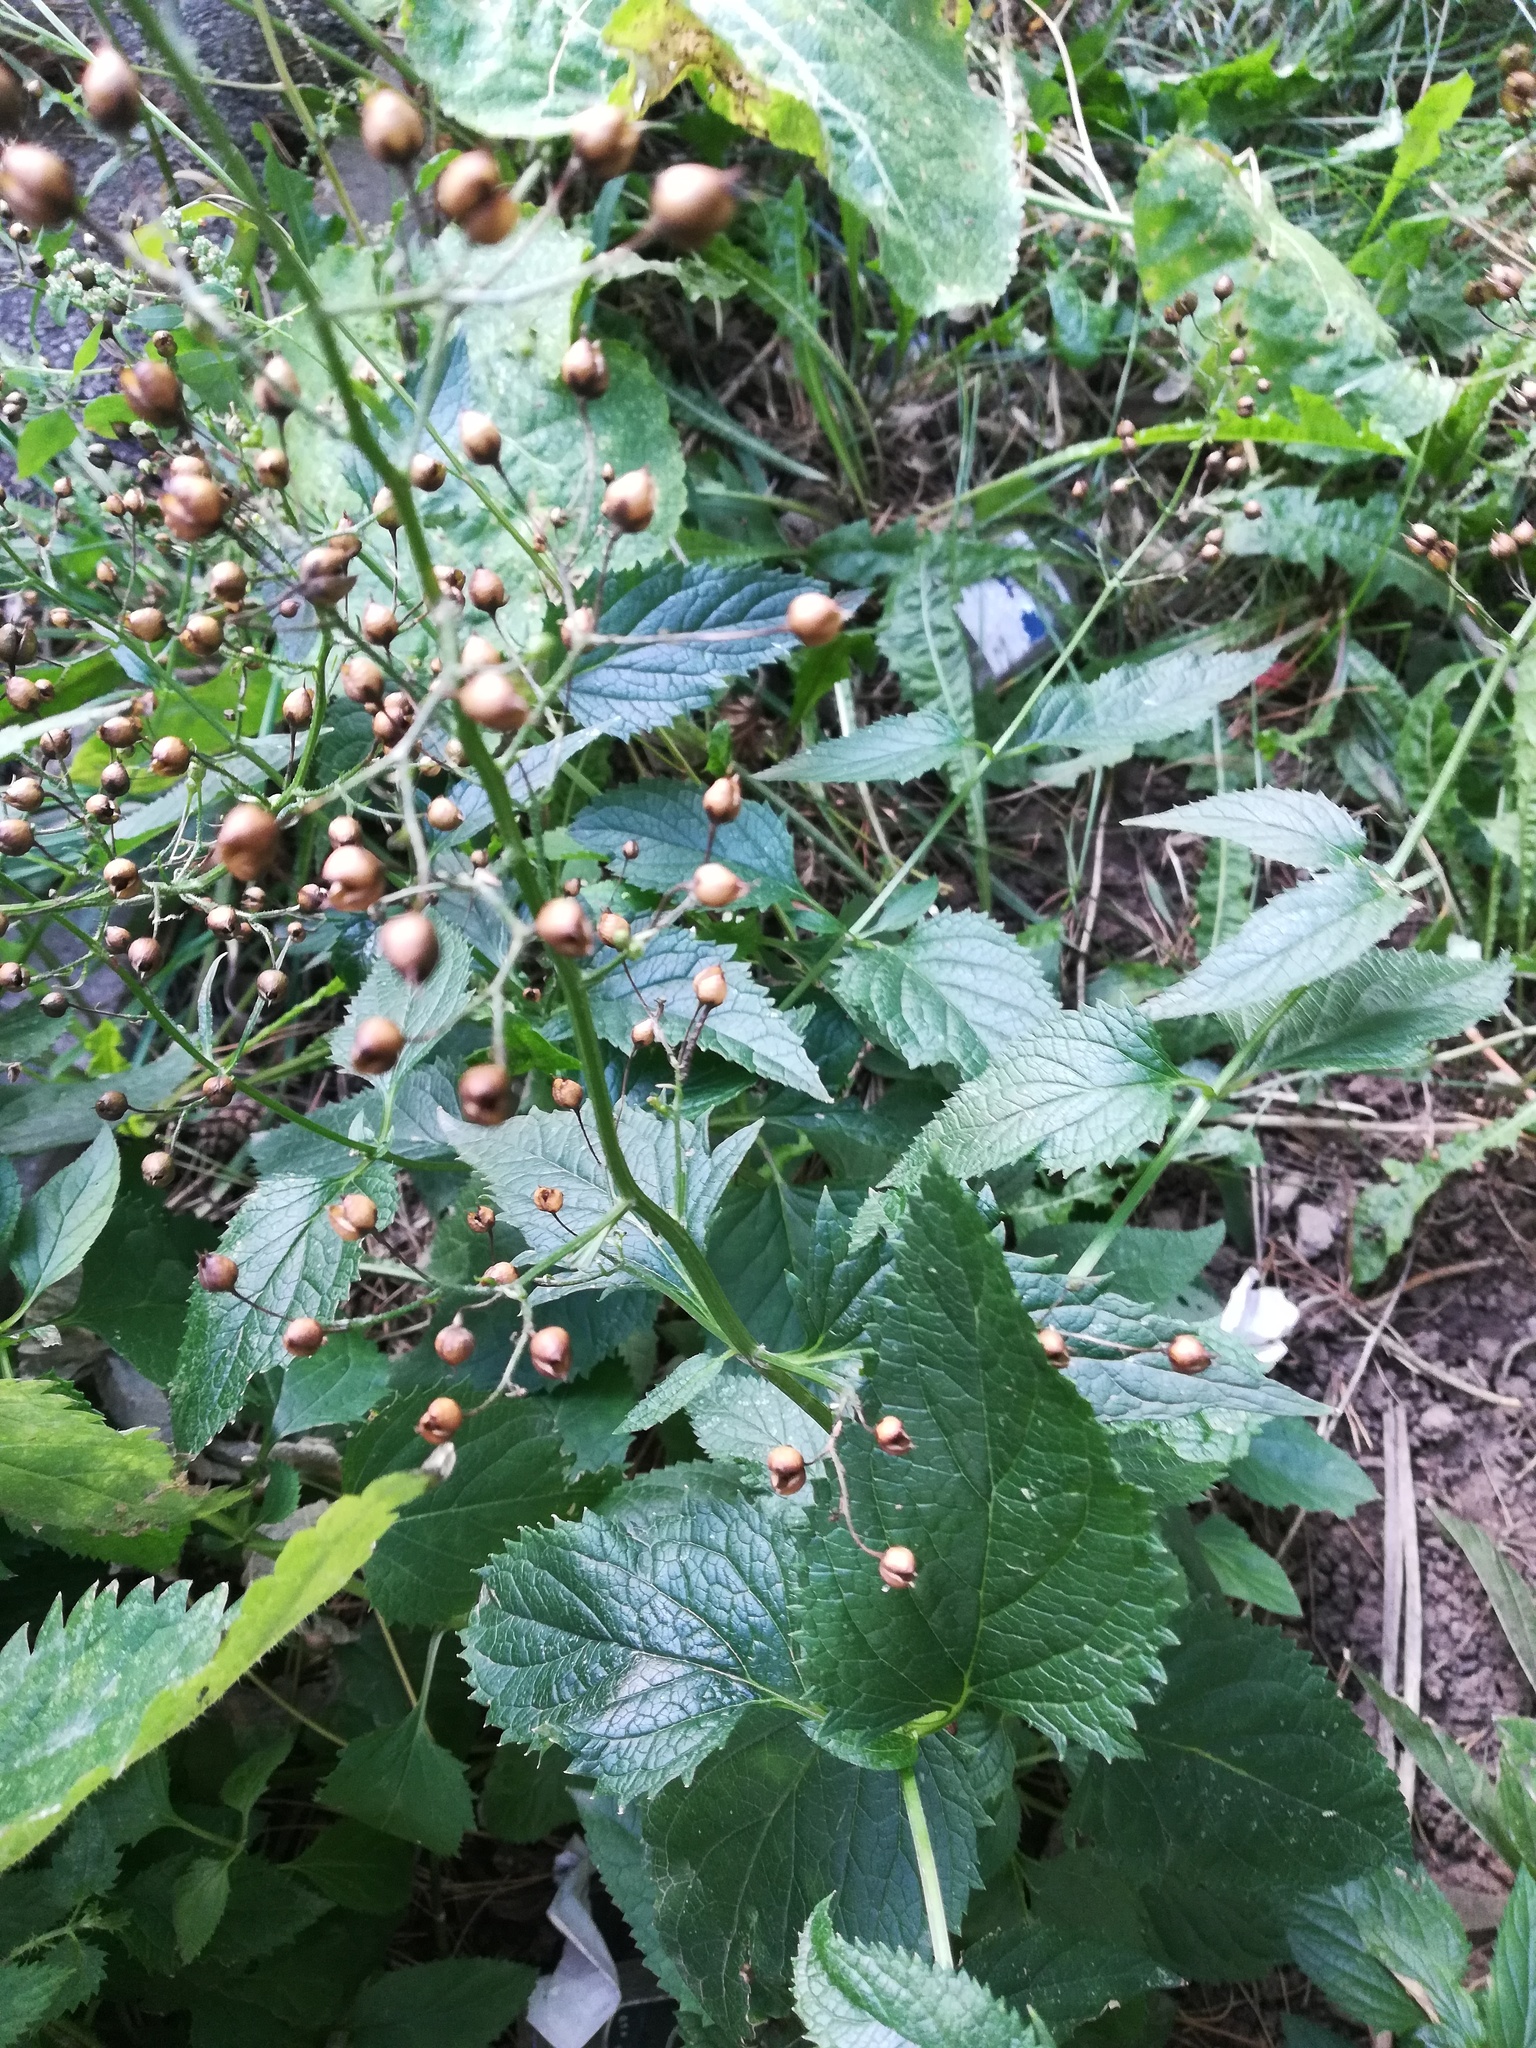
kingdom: Plantae
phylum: Tracheophyta
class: Magnoliopsida
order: Lamiales
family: Scrophulariaceae
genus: Scrophularia
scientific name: Scrophularia nodosa
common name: Common figwort
